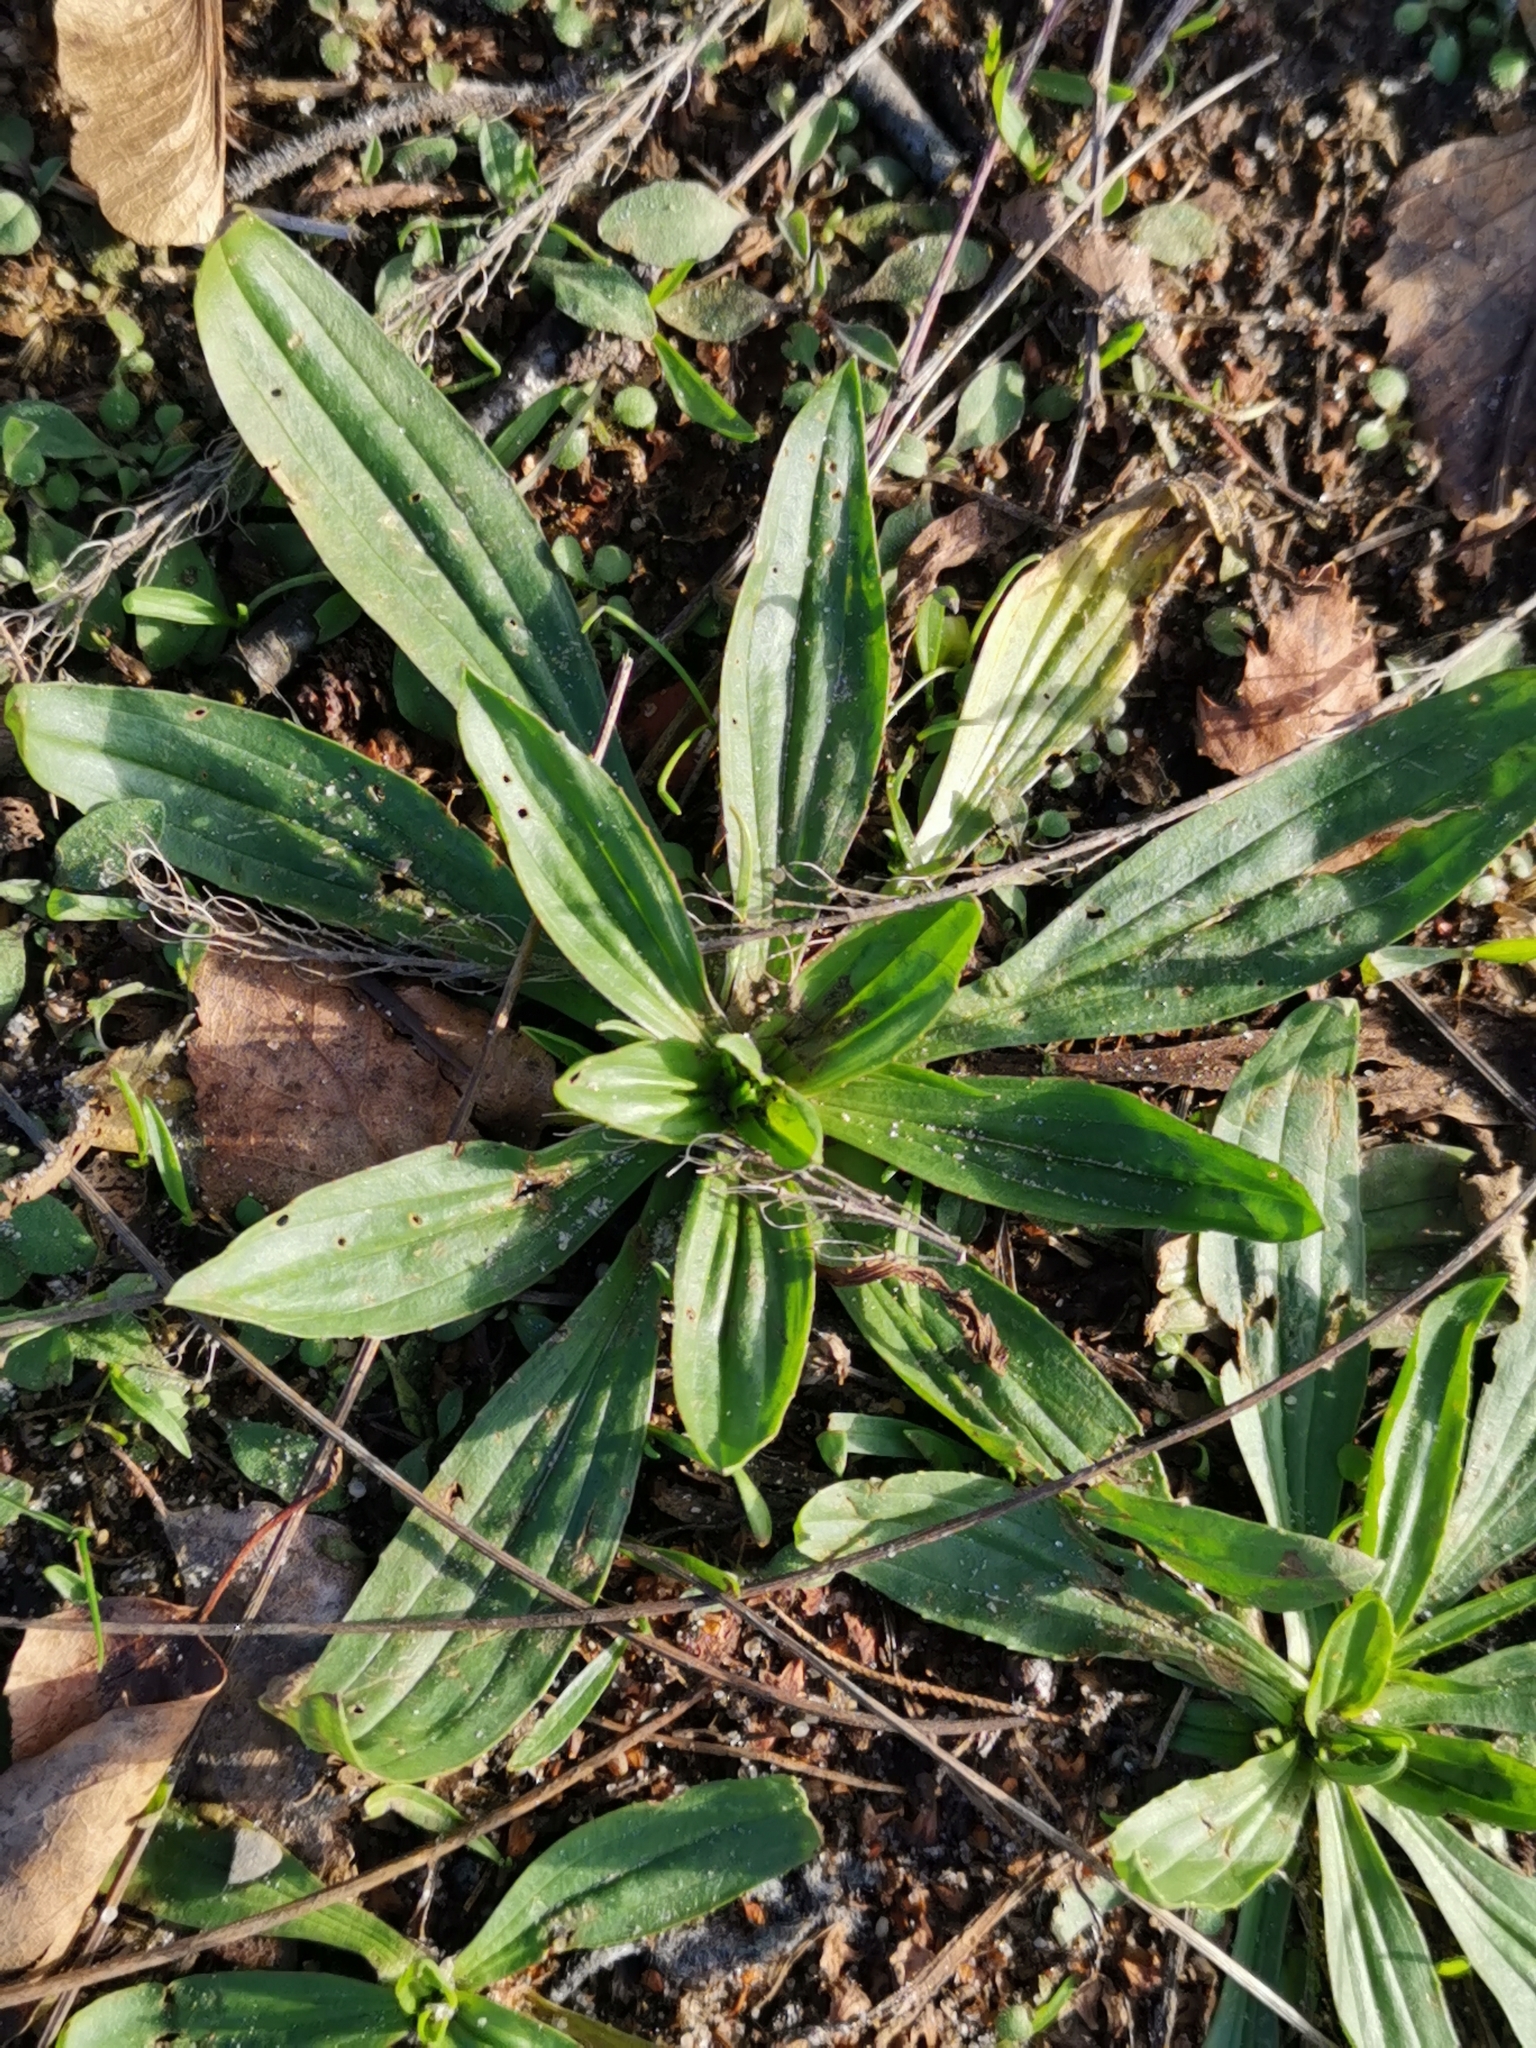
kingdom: Plantae
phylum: Tracheophyta
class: Magnoliopsida
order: Lamiales
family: Plantaginaceae
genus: Plantago
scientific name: Plantago lanceolata
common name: Ribwort plantain
